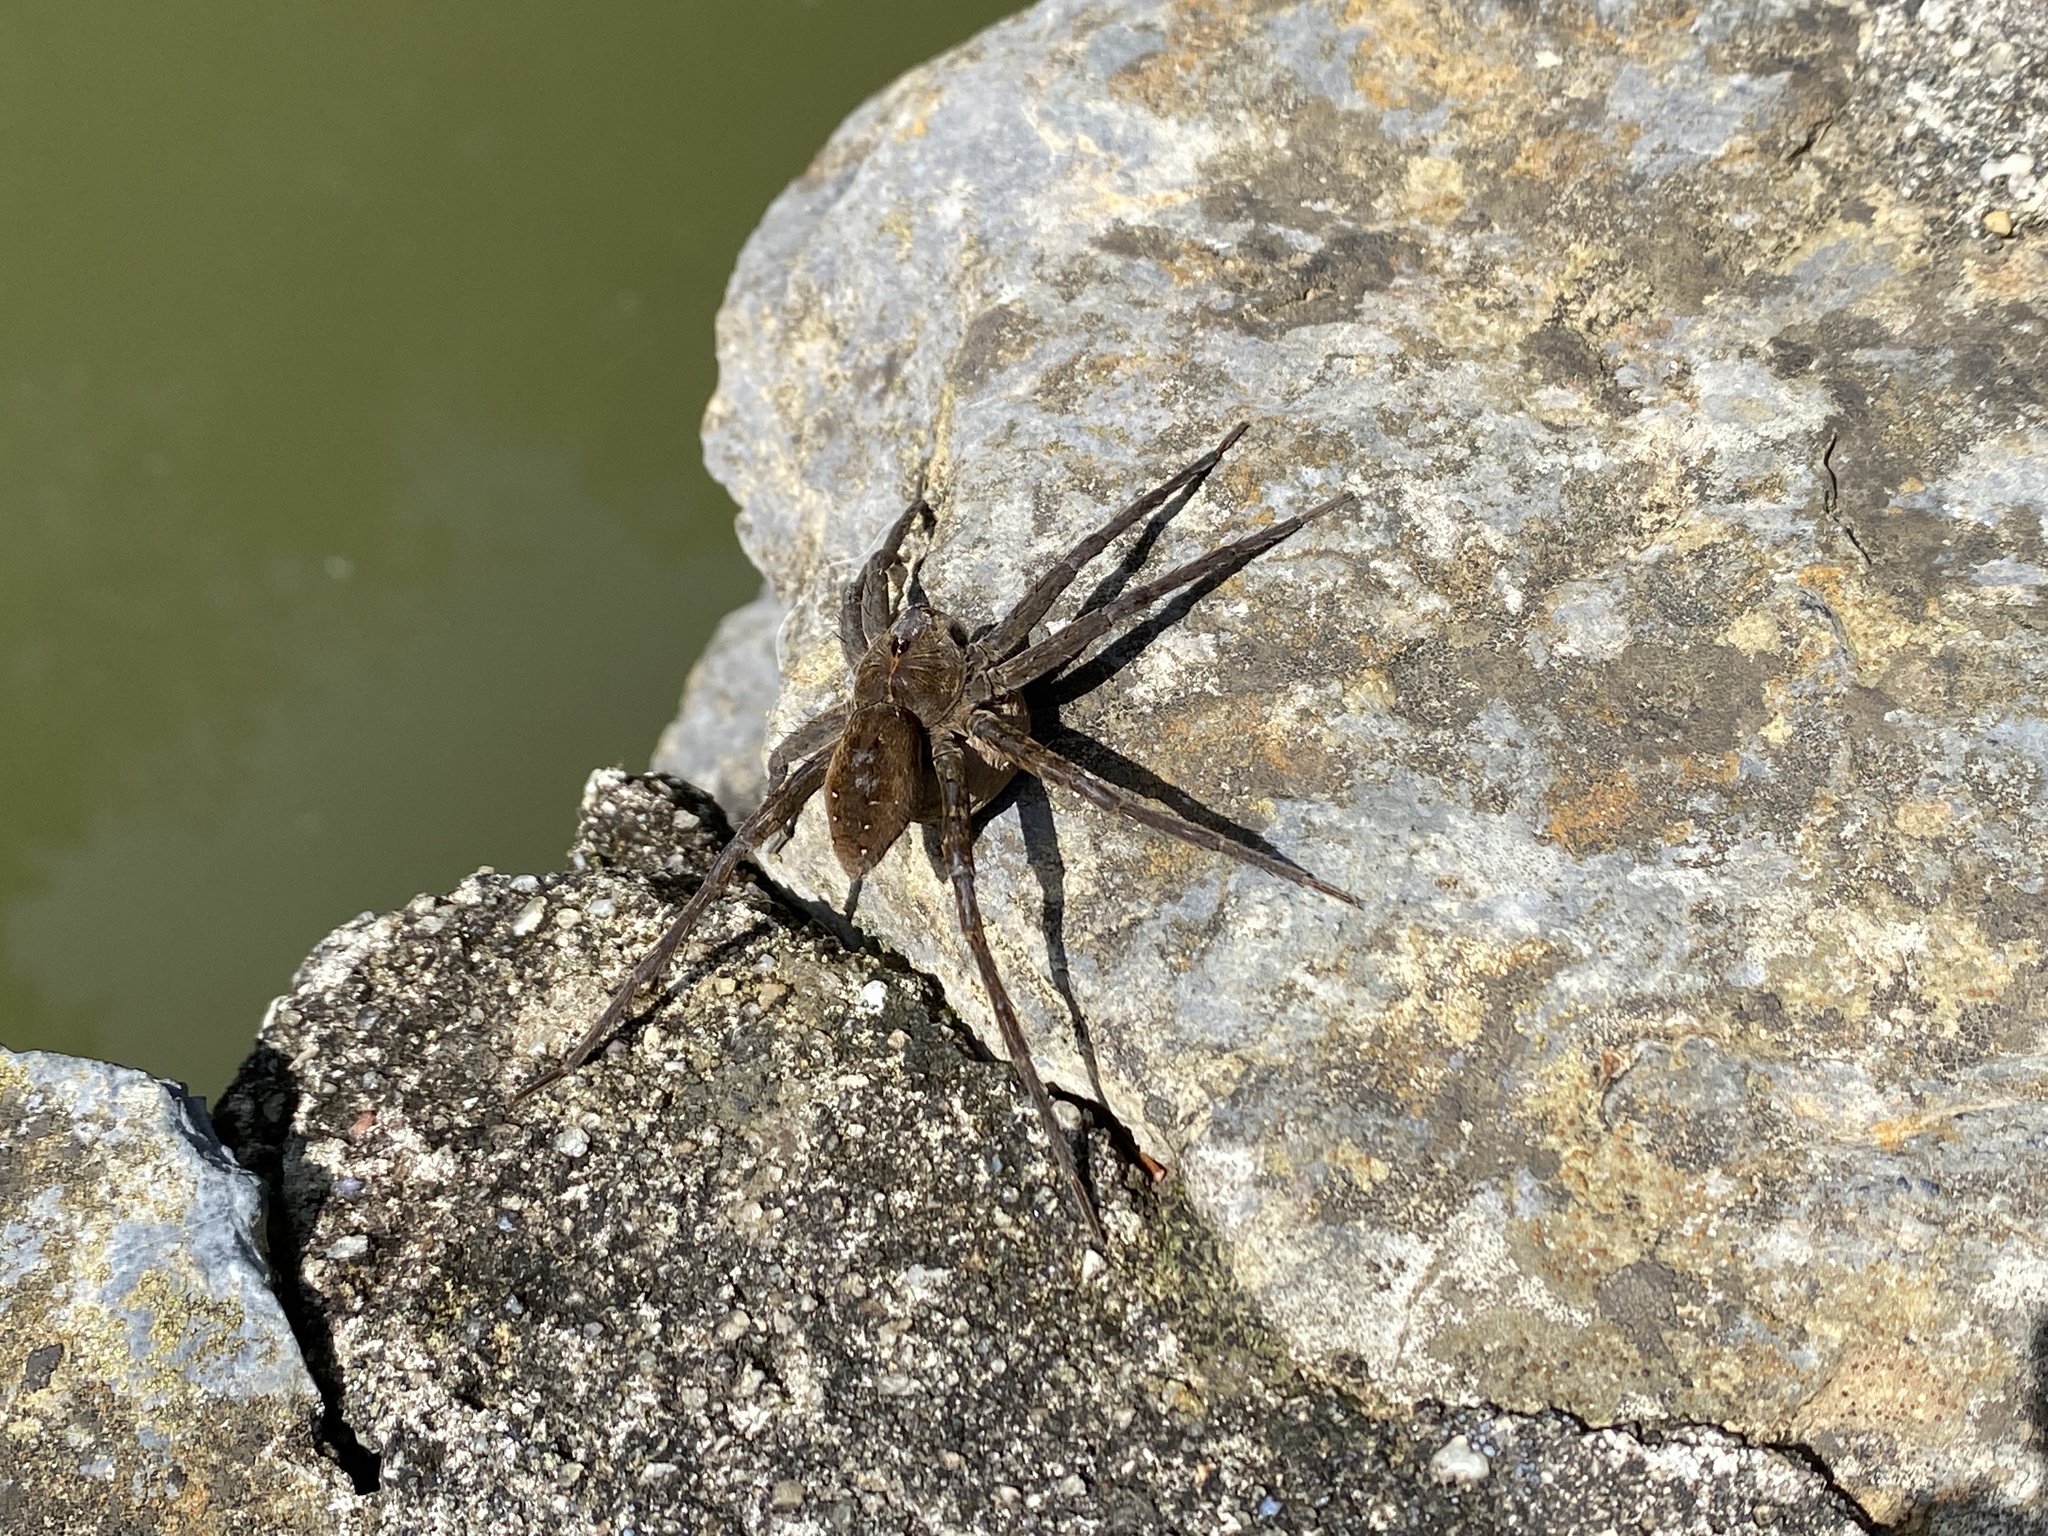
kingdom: Animalia
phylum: Arthropoda
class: Arachnida
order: Araneae
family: Pisauridae
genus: Dolomedes
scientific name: Dolomedes vittatus
